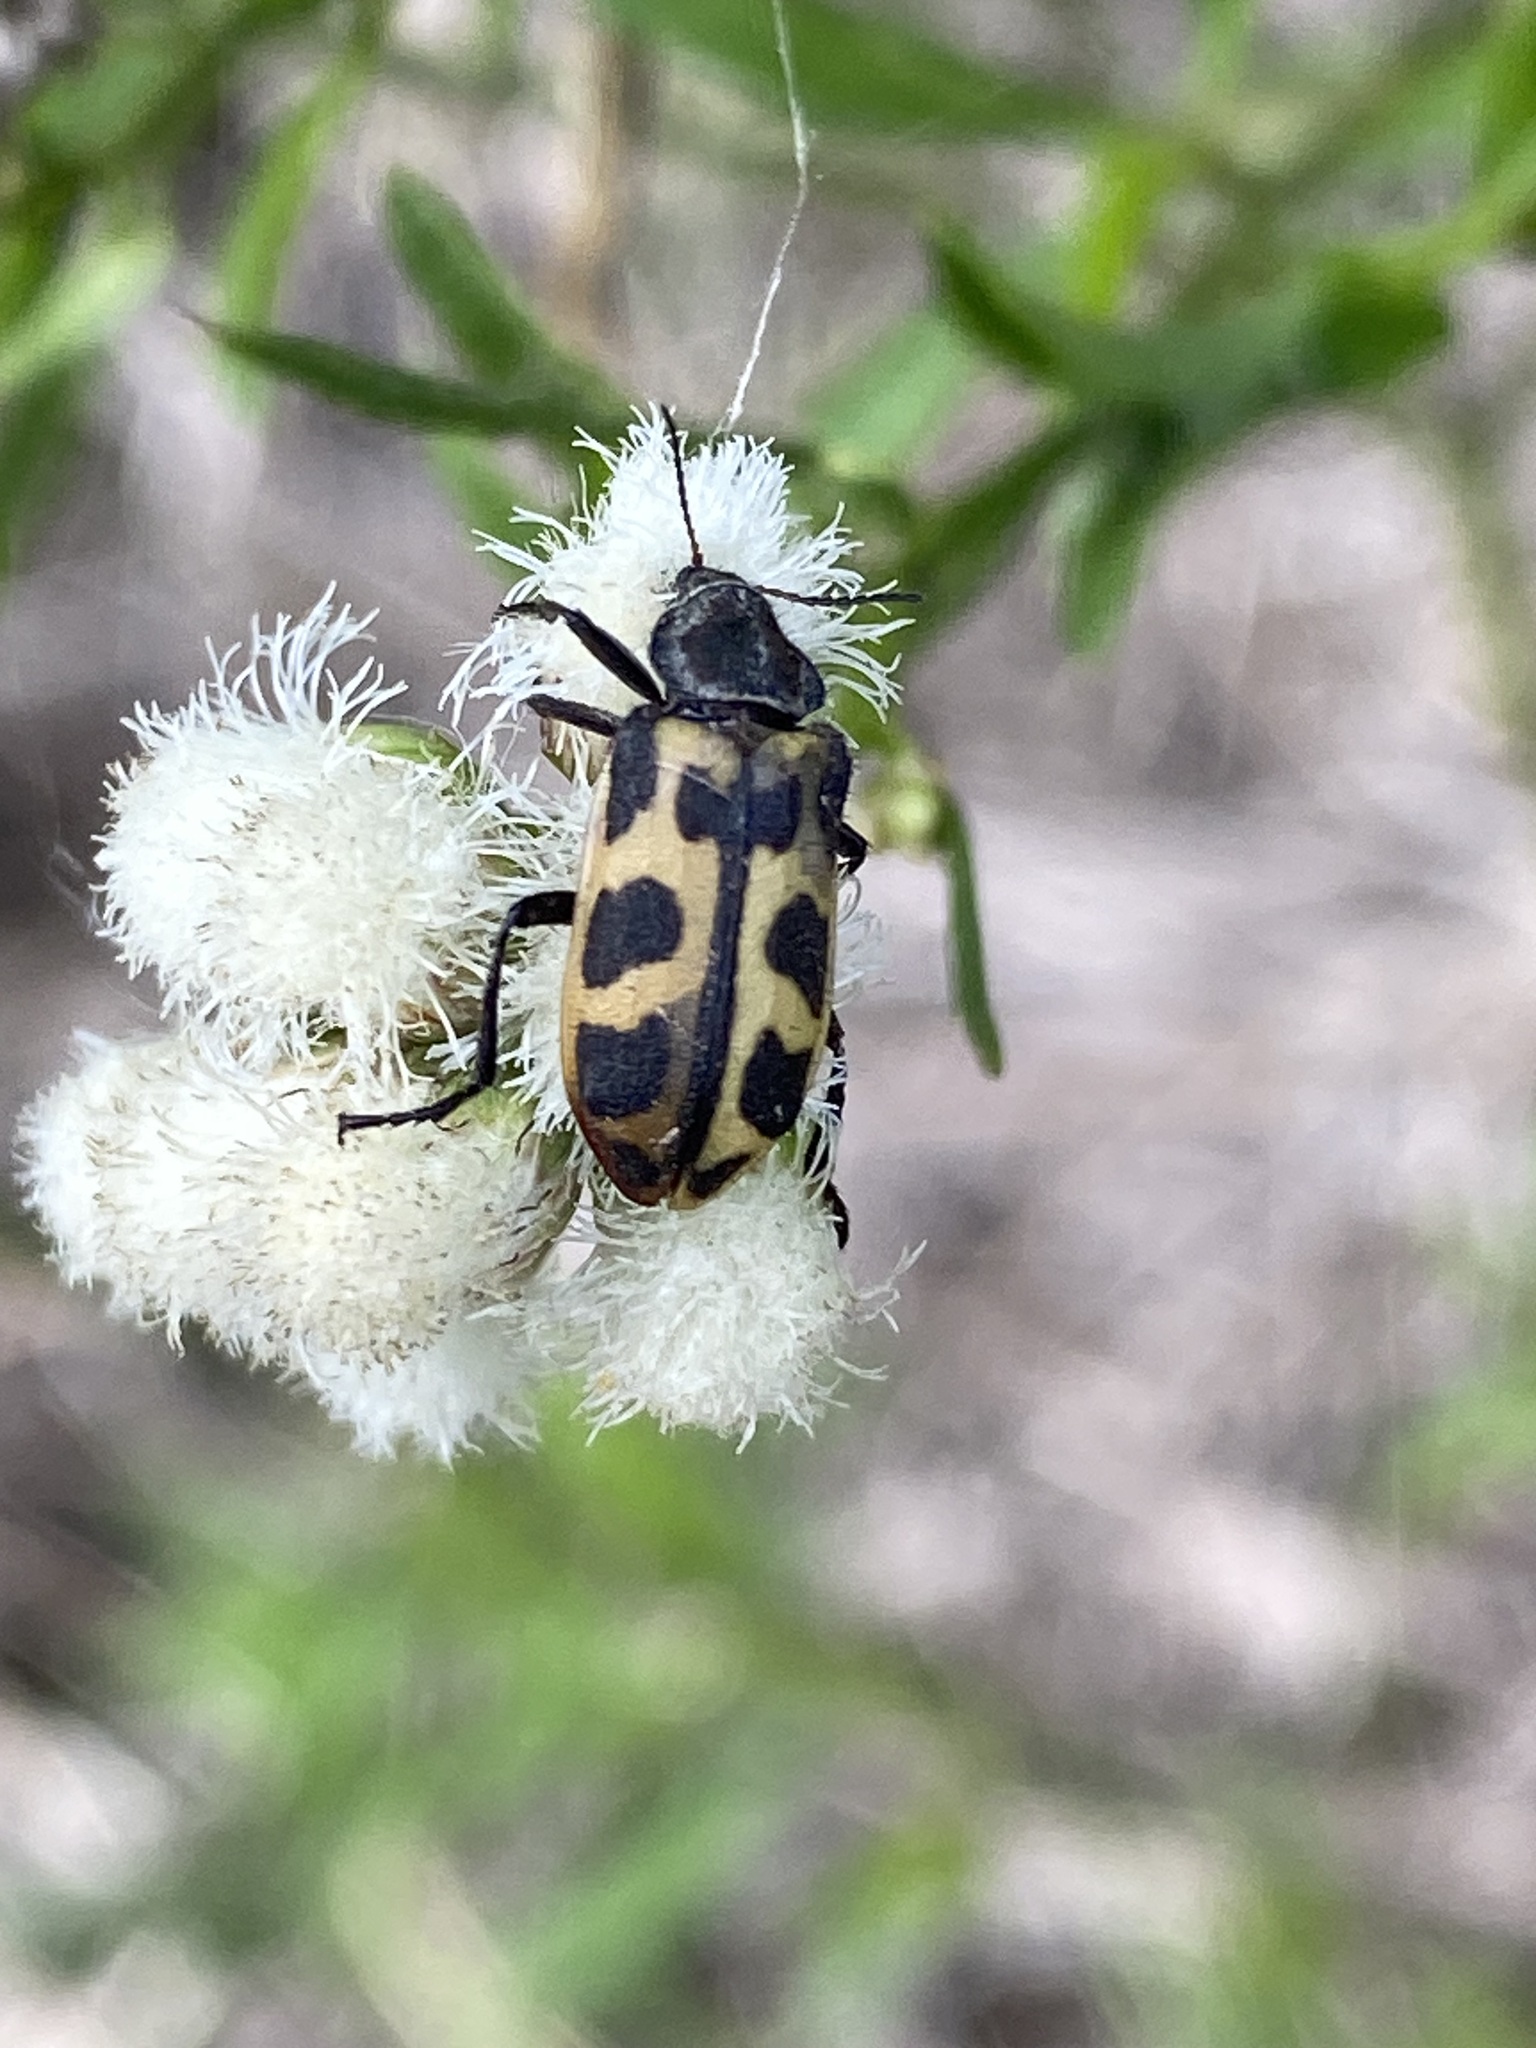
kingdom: Animalia
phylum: Arthropoda
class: Insecta
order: Coleoptera
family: Melyridae
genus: Astylus
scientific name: Astylus atromaculatus
